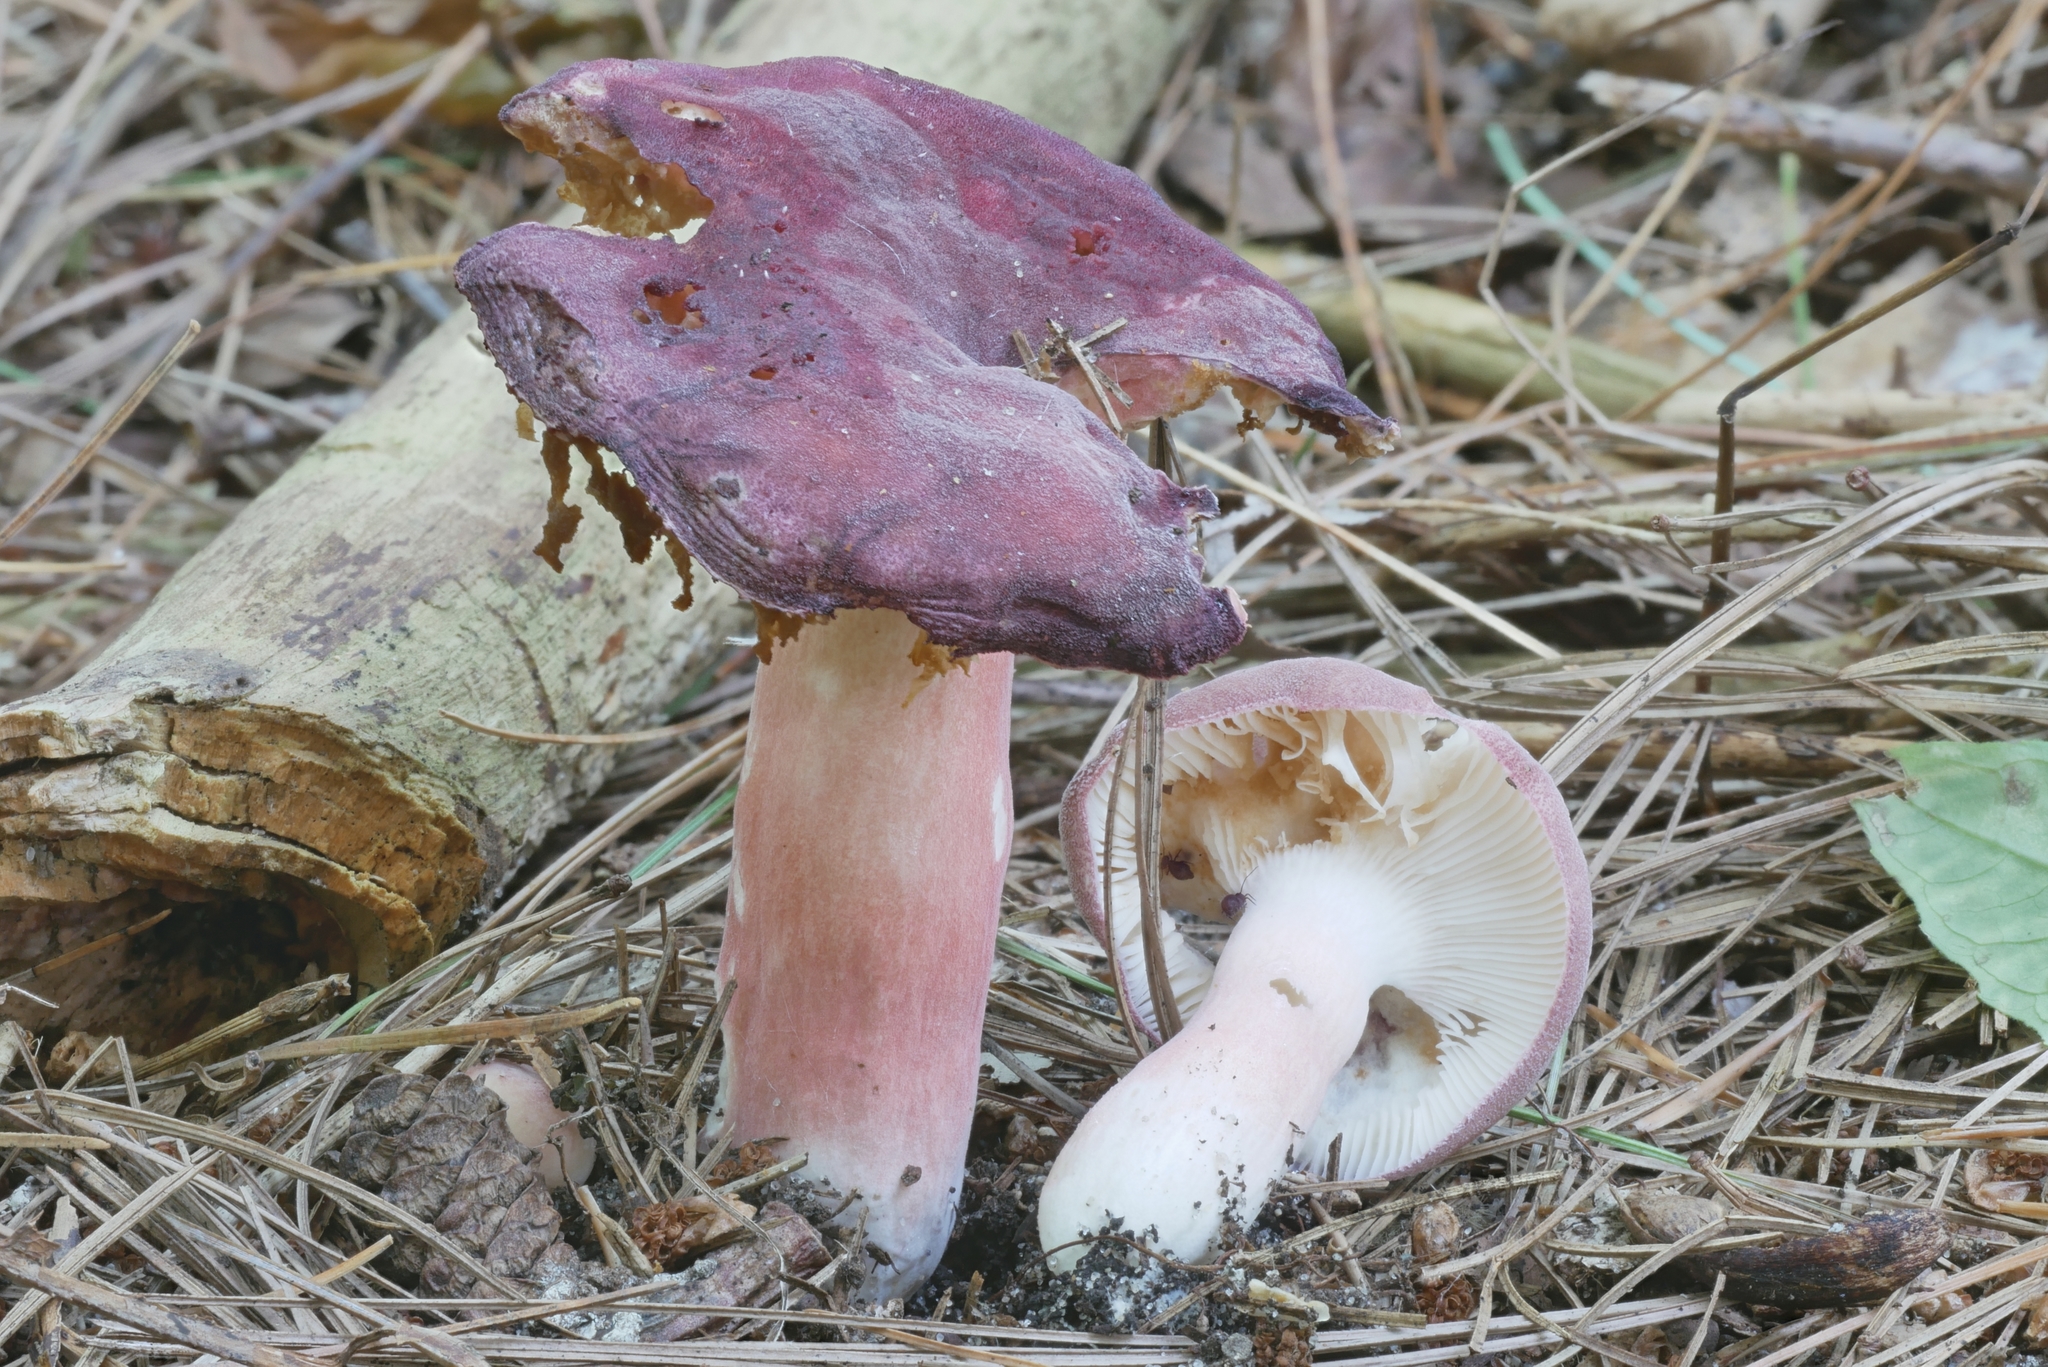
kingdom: Fungi
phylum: Basidiomycota
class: Agaricomycetes
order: Russulales
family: Russulaceae
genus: Russula
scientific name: Russula mariae
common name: Purple-bloom russula
